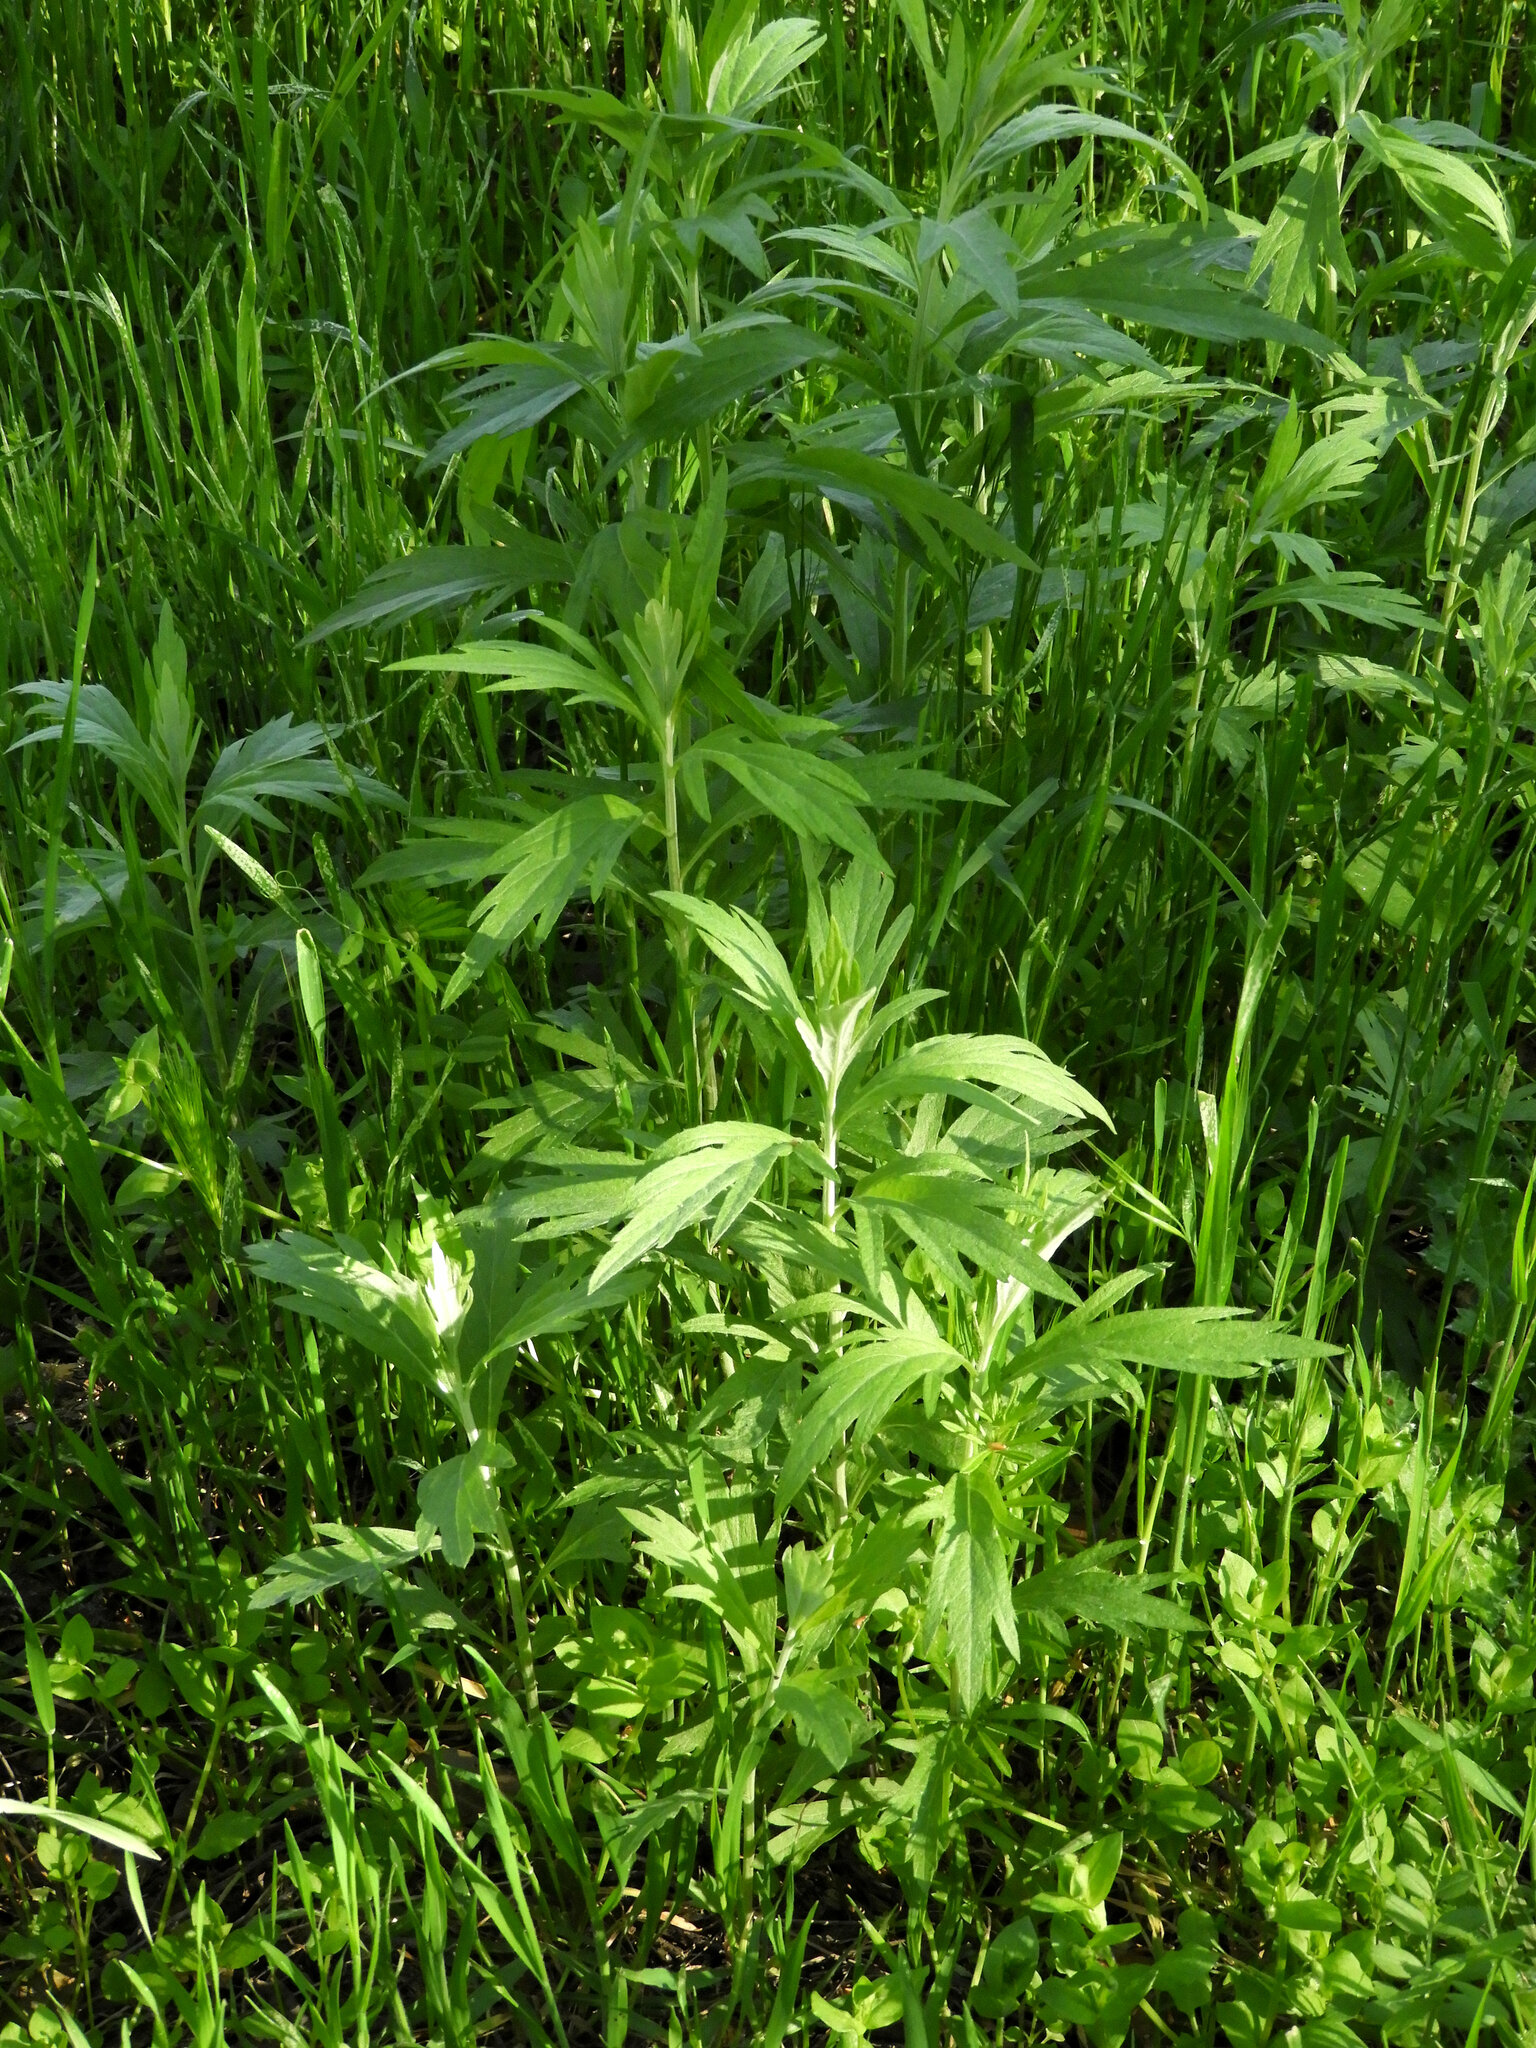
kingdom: Plantae
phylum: Tracheophyta
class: Magnoliopsida
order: Asterales
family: Asteraceae
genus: Artemisia
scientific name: Artemisia douglasiana
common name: Northwest mugwort
